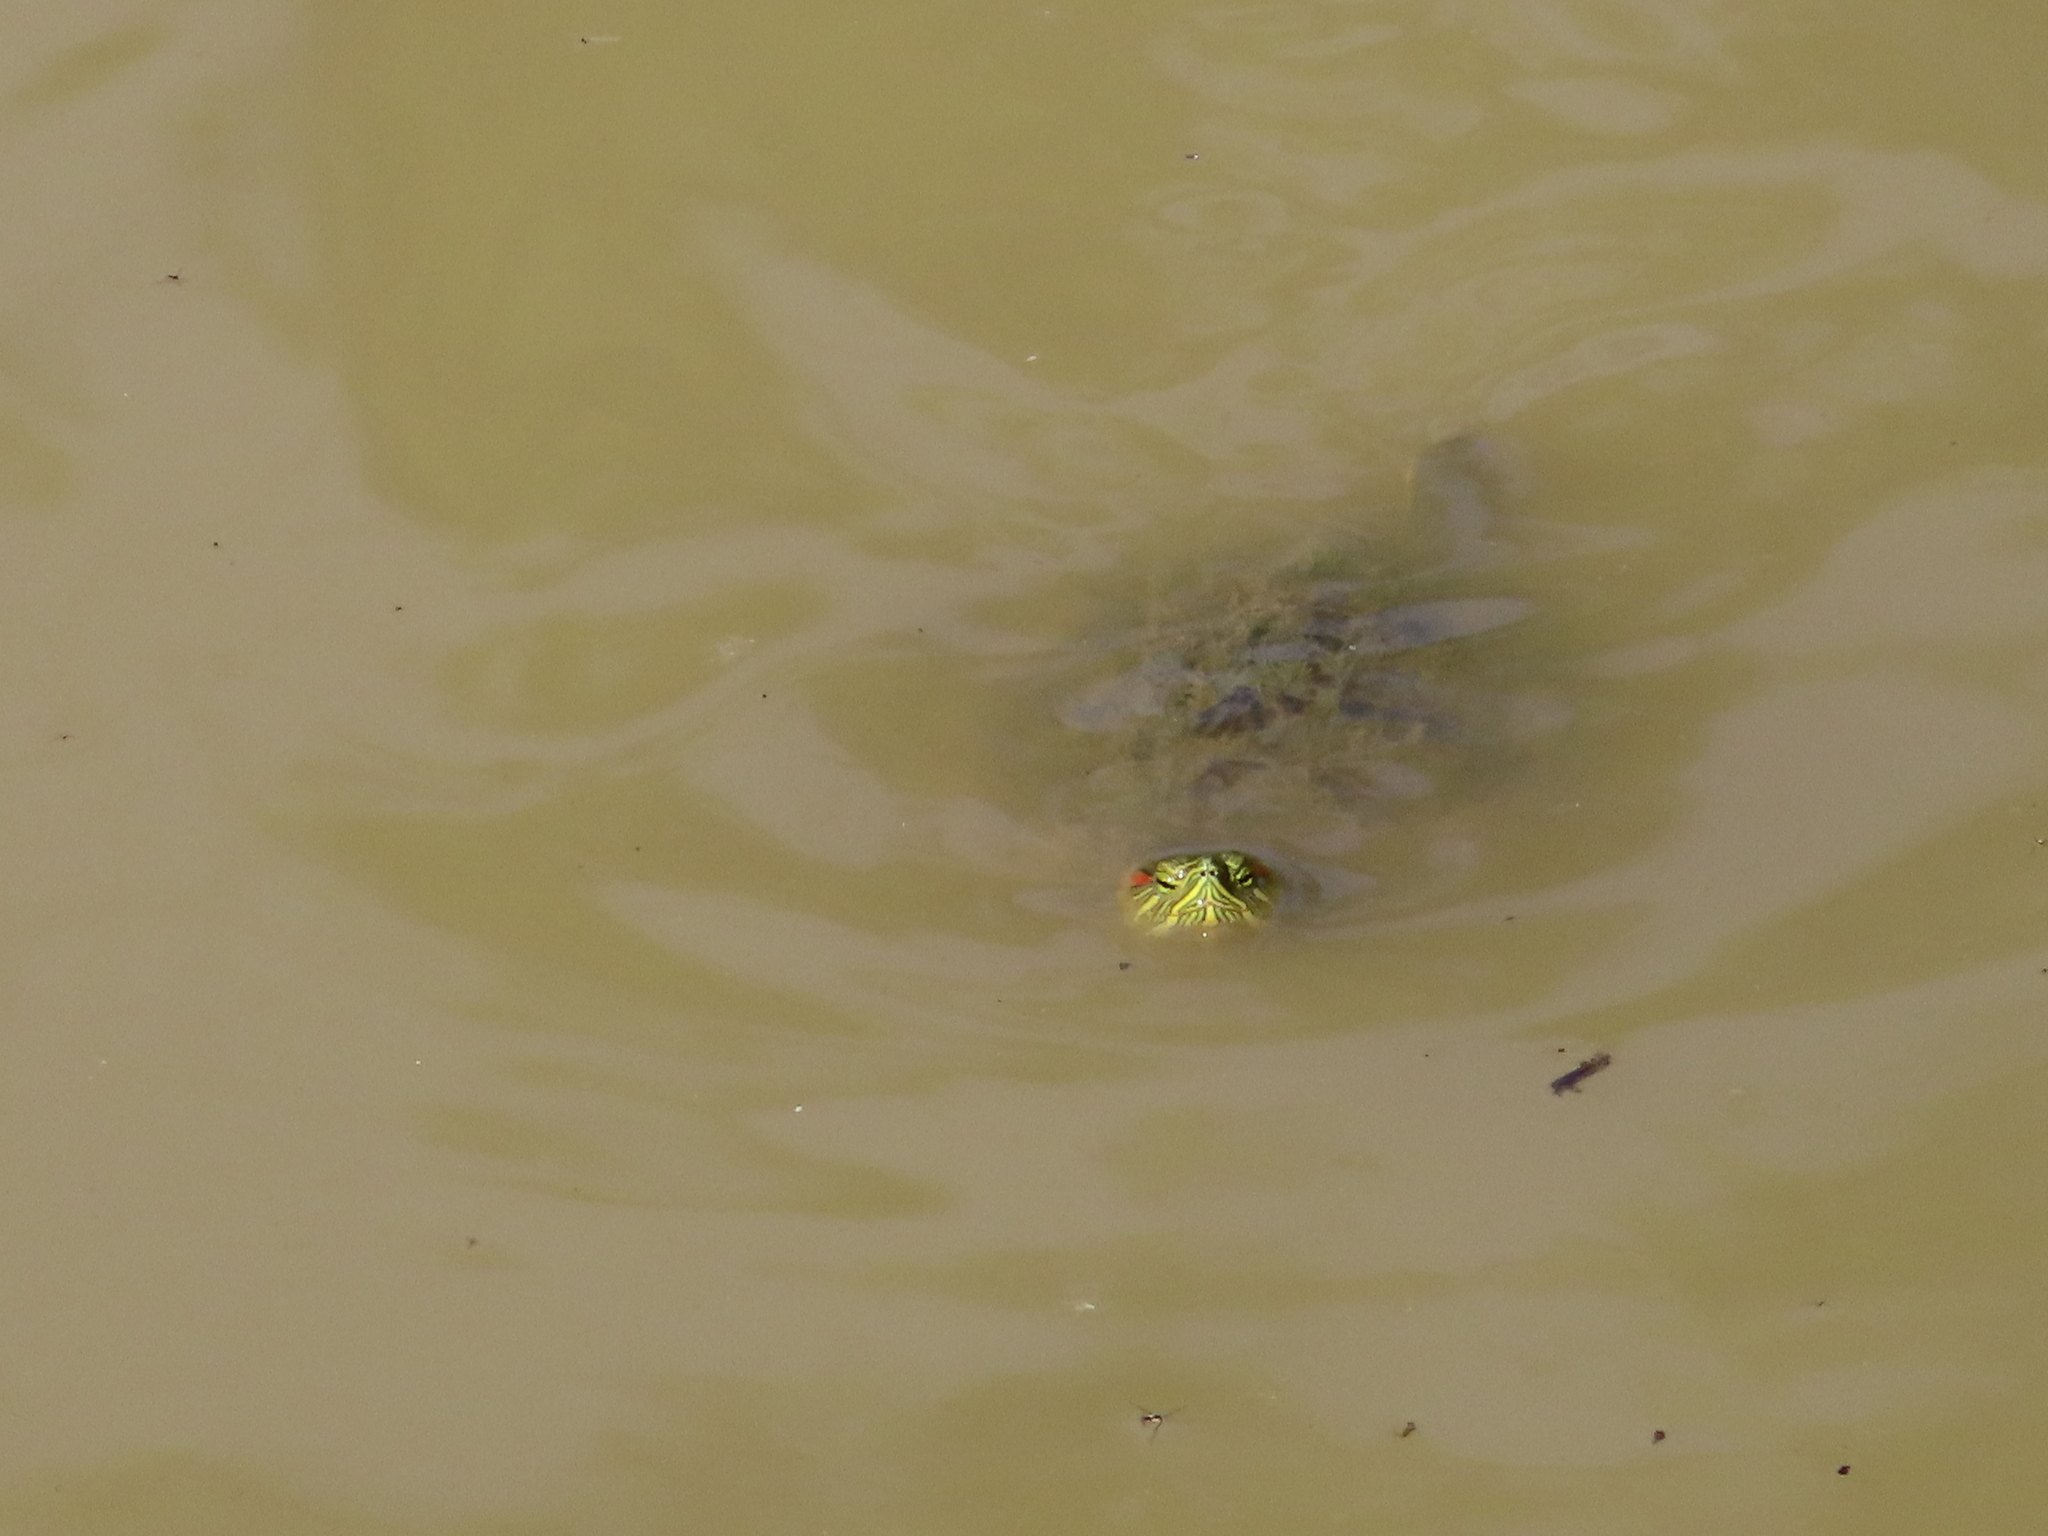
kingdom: Animalia
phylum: Chordata
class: Testudines
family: Emydidae
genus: Trachemys
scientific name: Trachemys scripta
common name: Slider
